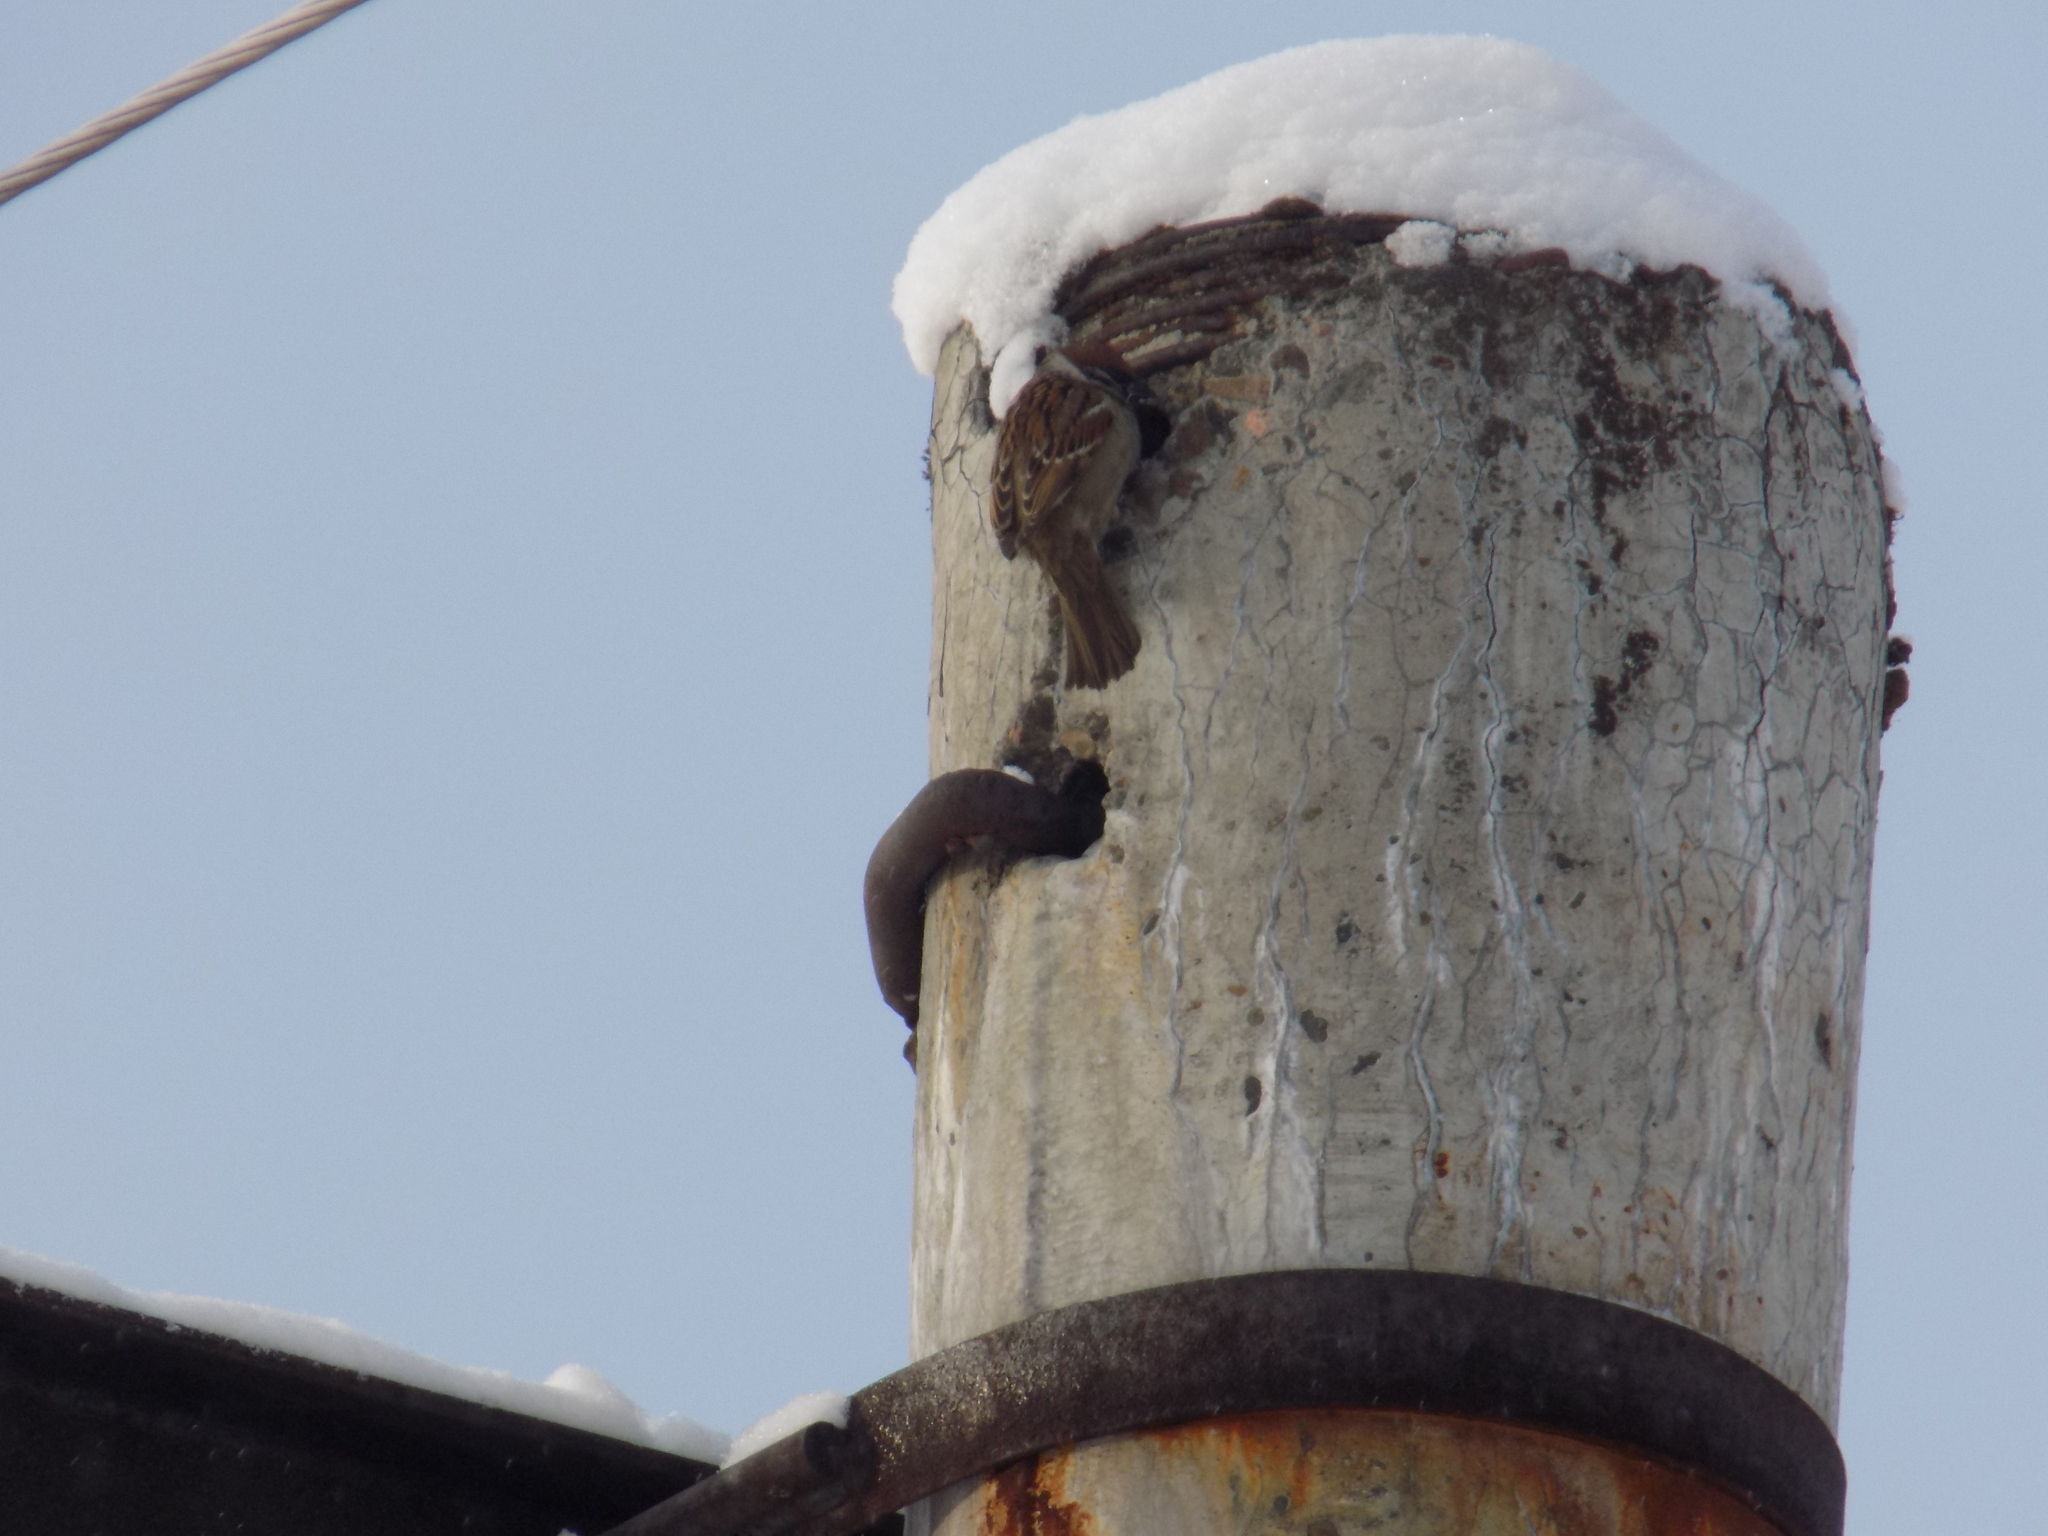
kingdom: Animalia
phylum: Chordata
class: Aves
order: Passeriformes
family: Passeridae
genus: Passer
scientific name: Passer montanus
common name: Eurasian tree sparrow
